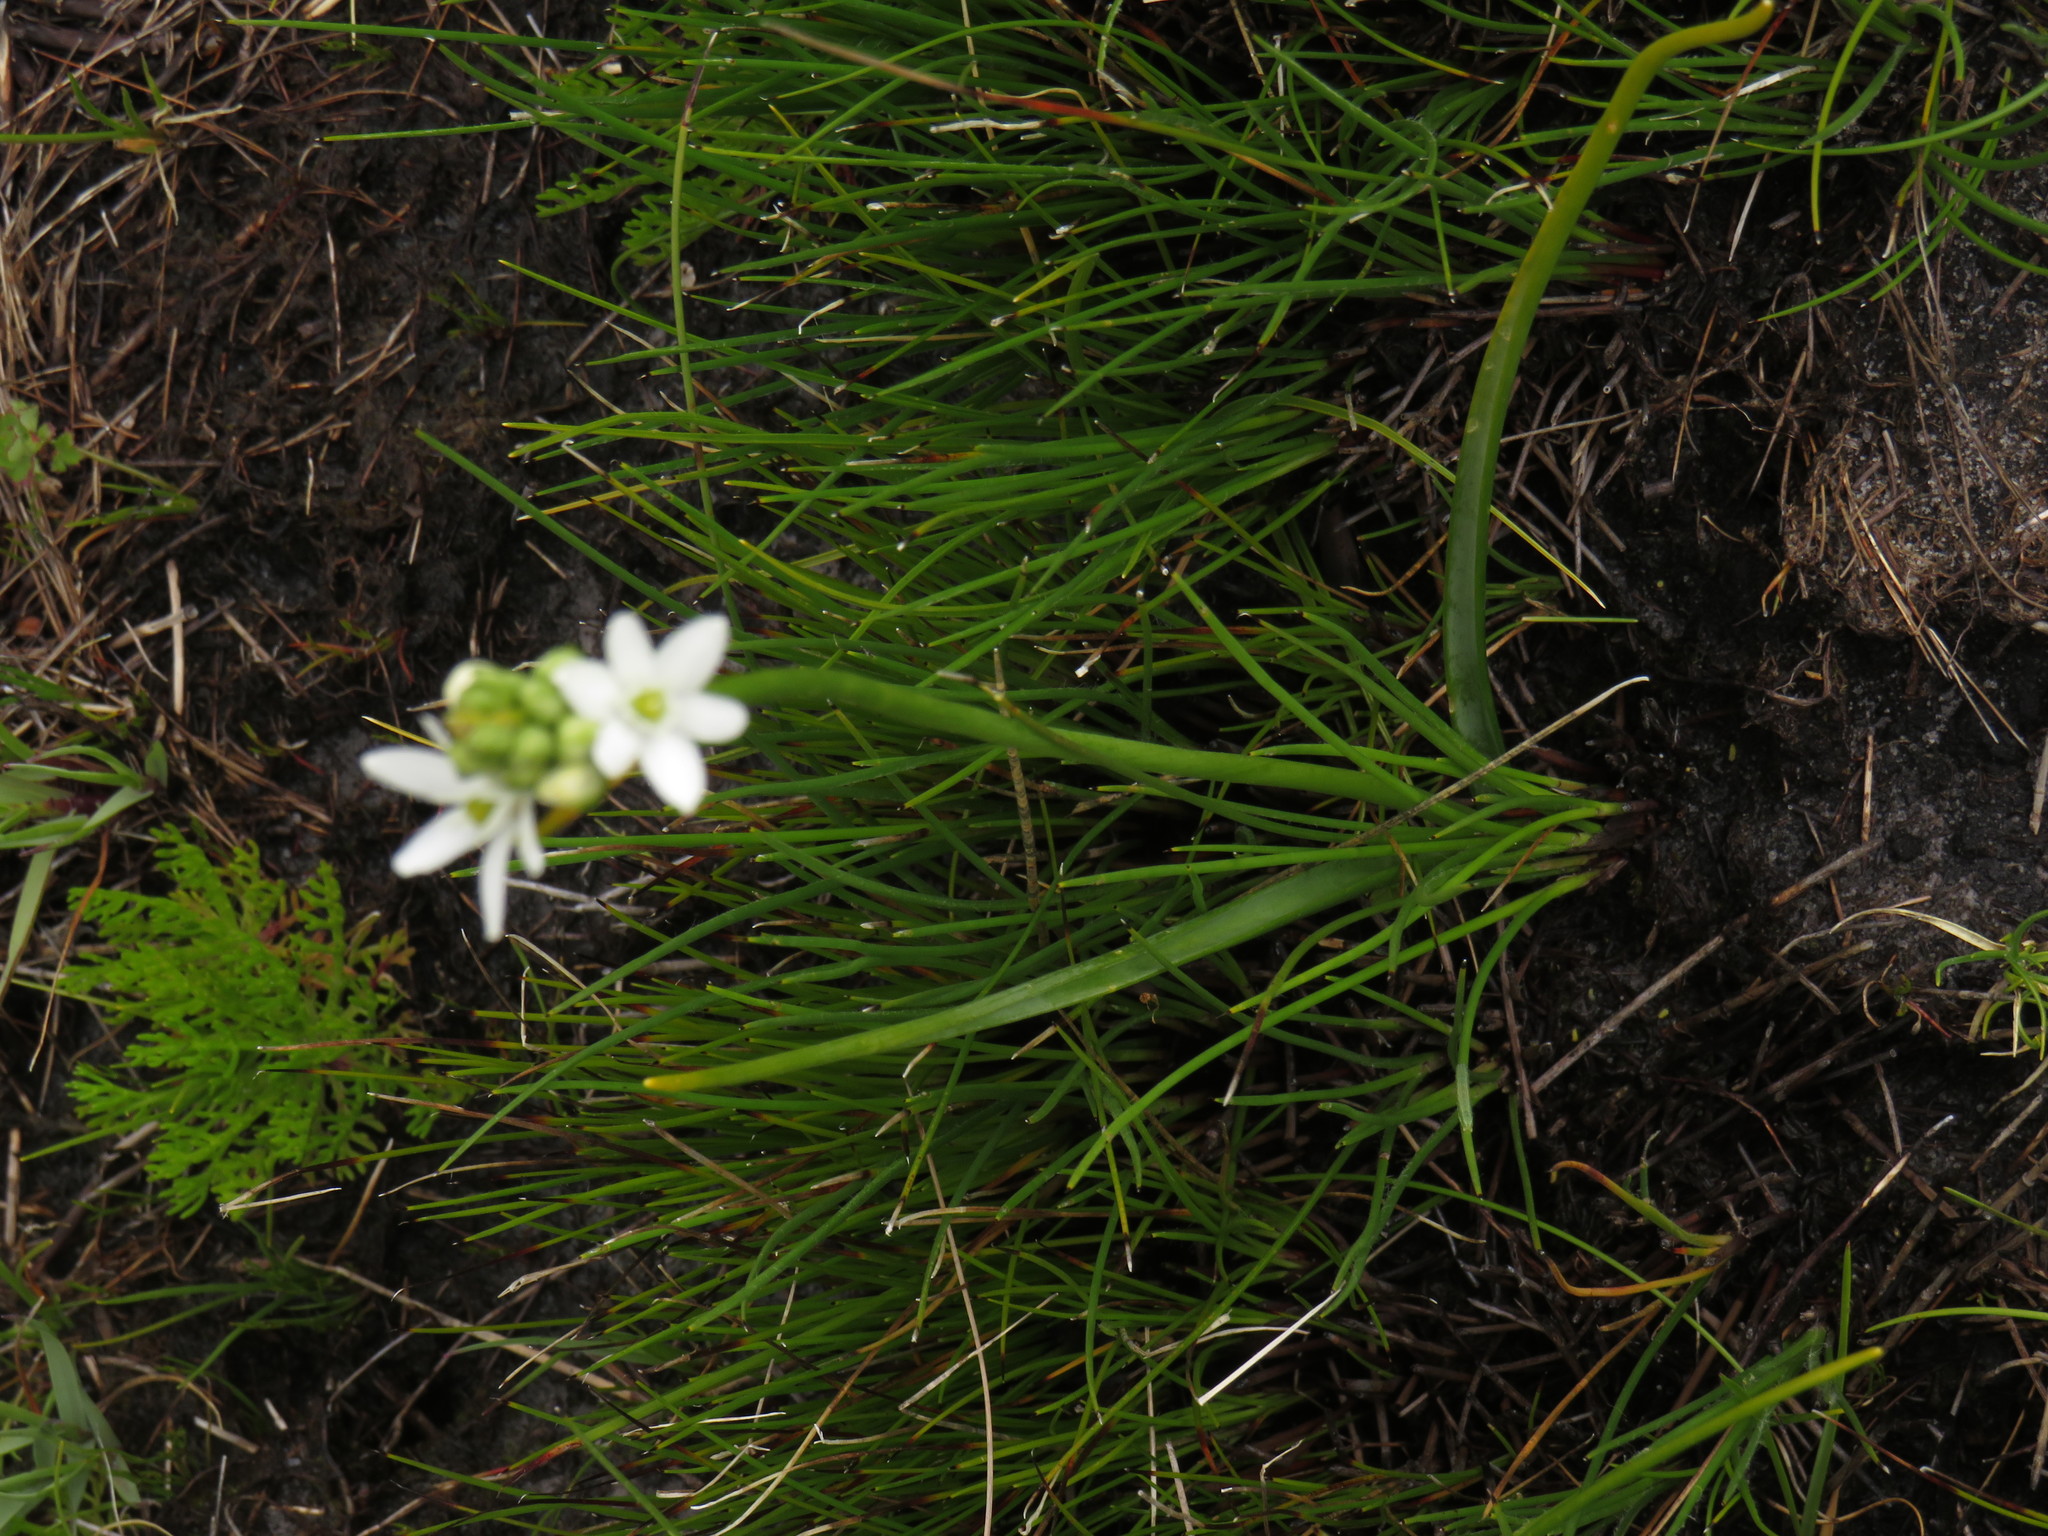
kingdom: Plantae
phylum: Tracheophyta
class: Liliopsida
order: Asparagales
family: Asparagaceae
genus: Ornithogalum
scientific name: Ornithogalum niveum
